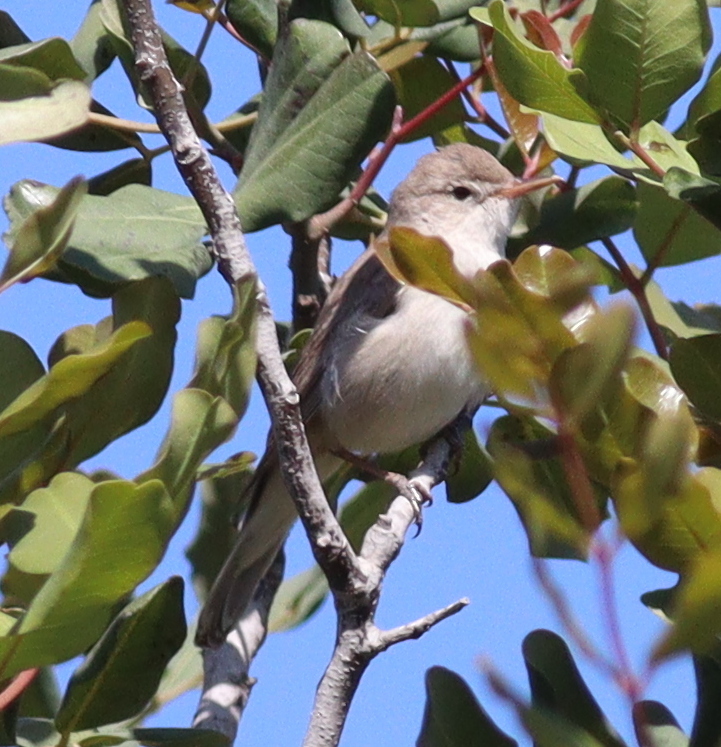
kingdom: Animalia
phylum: Chordata
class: Aves
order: Passeriformes
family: Acrocephalidae
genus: Iduna
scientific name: Iduna pallida
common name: Eastern olivaceous warbler
